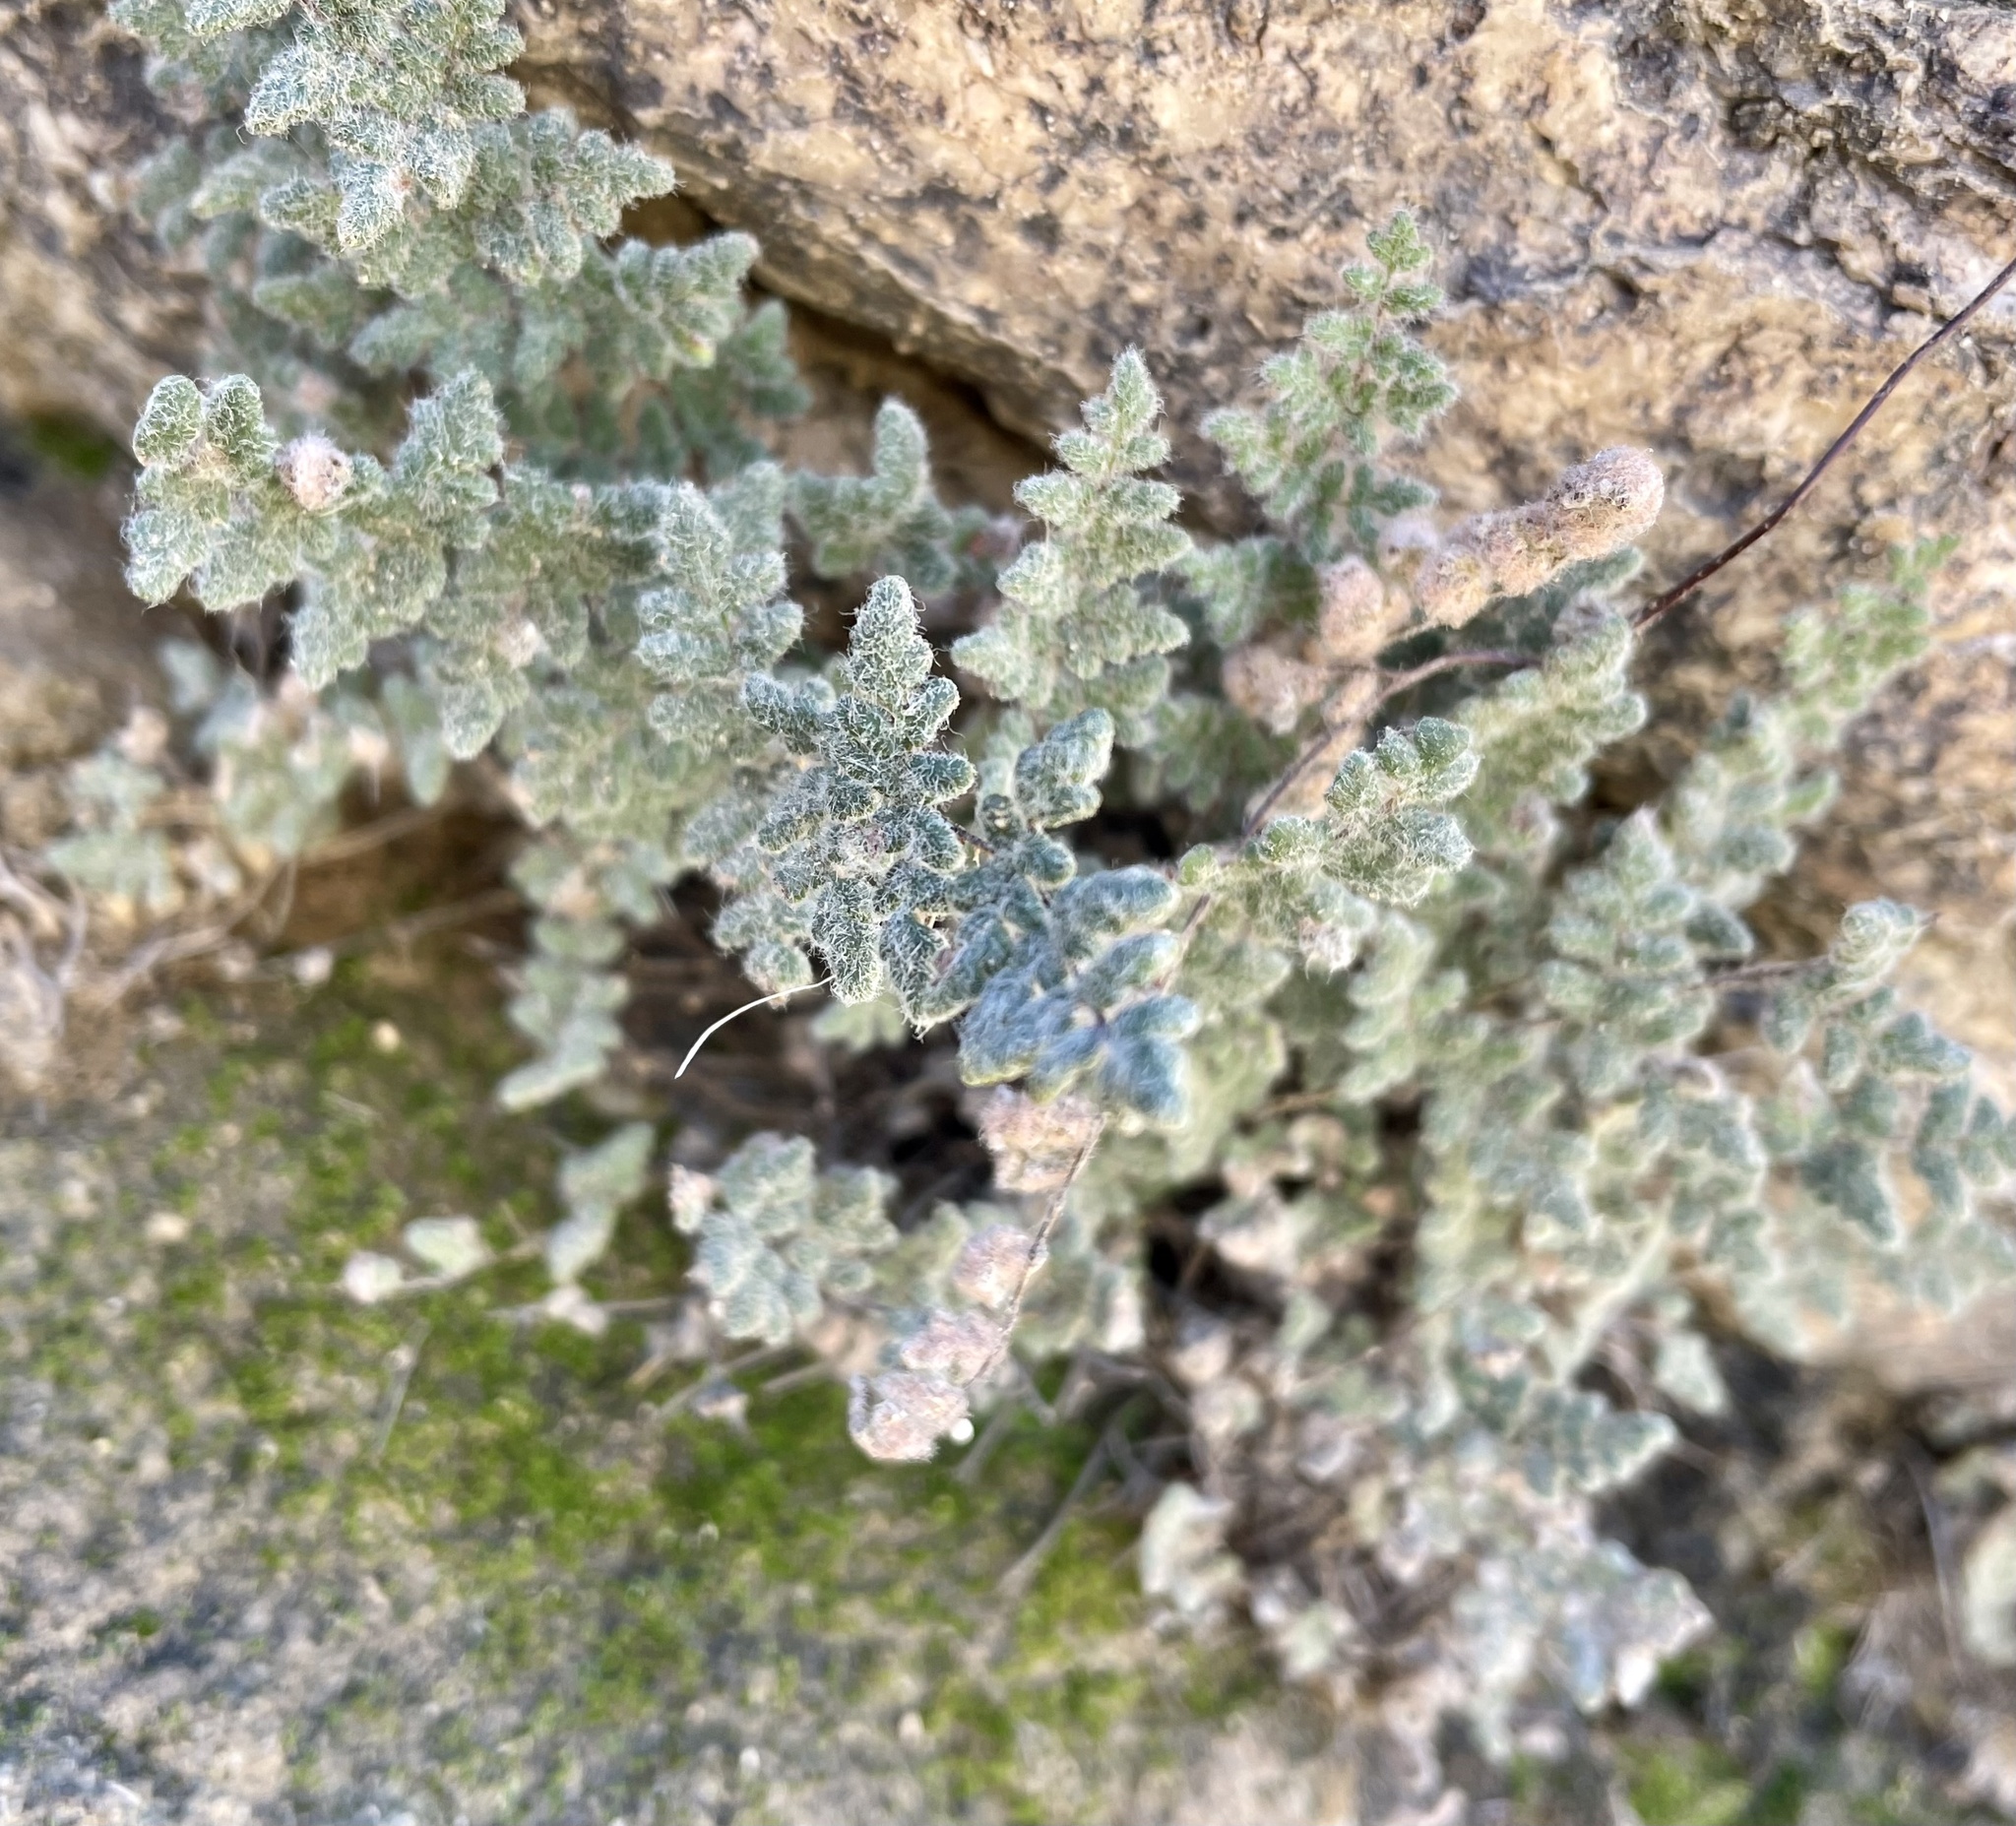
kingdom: Plantae
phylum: Tracheophyta
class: Polypodiopsida
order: Polypodiales
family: Pteridaceae
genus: Myriopteris
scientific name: Myriopteris parryi
